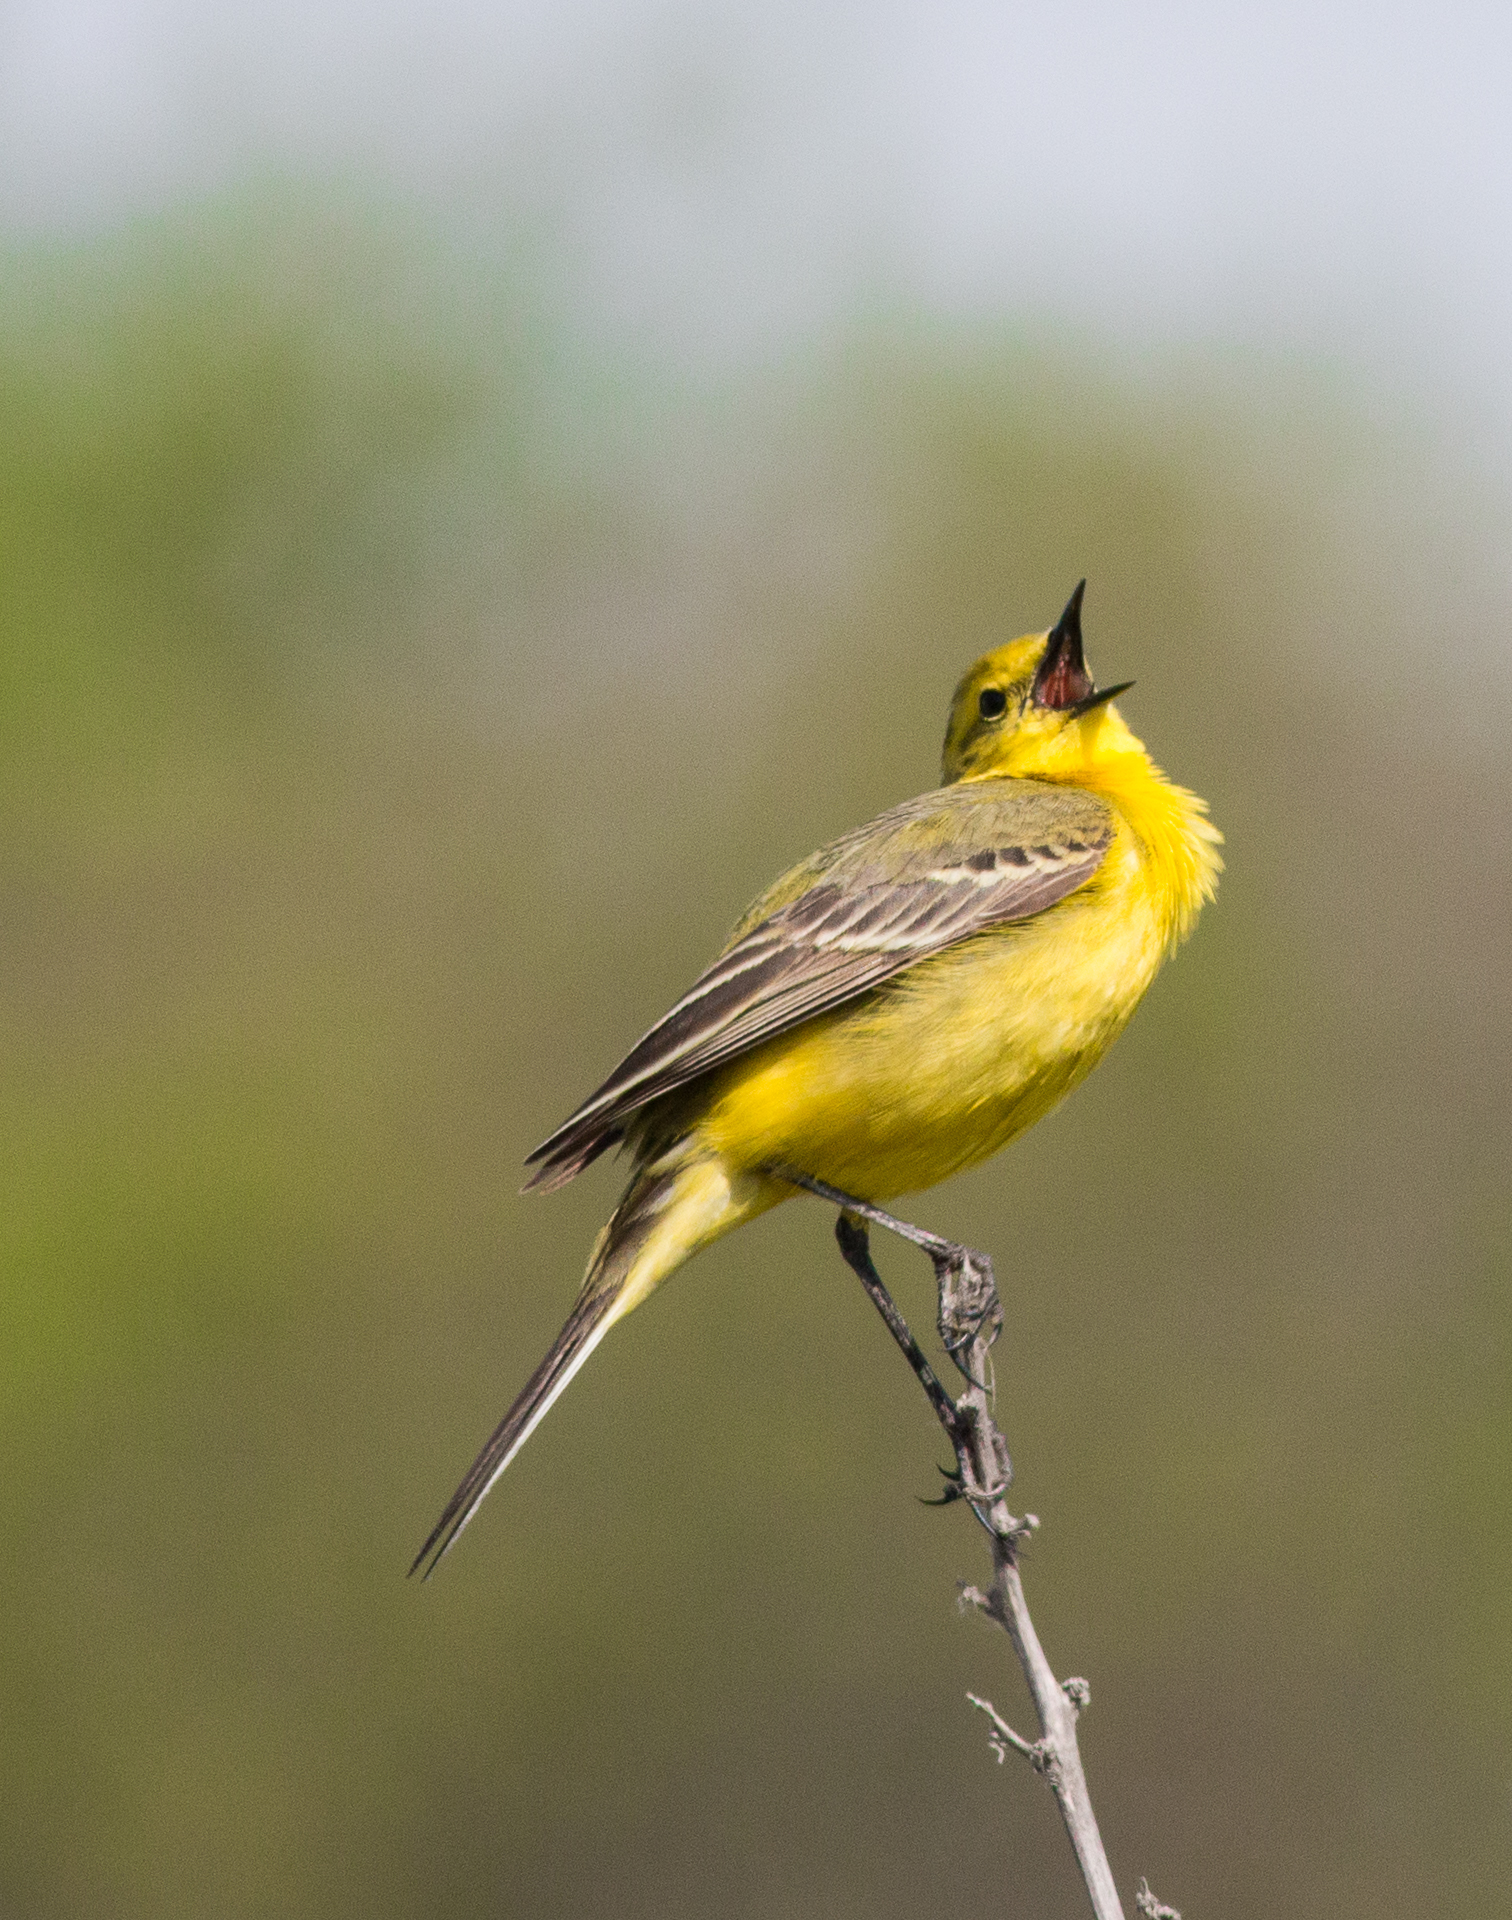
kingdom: Animalia
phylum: Chordata
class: Aves
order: Passeriformes
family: Motacillidae
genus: Motacilla
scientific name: Motacilla flava
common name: Western yellow wagtail
